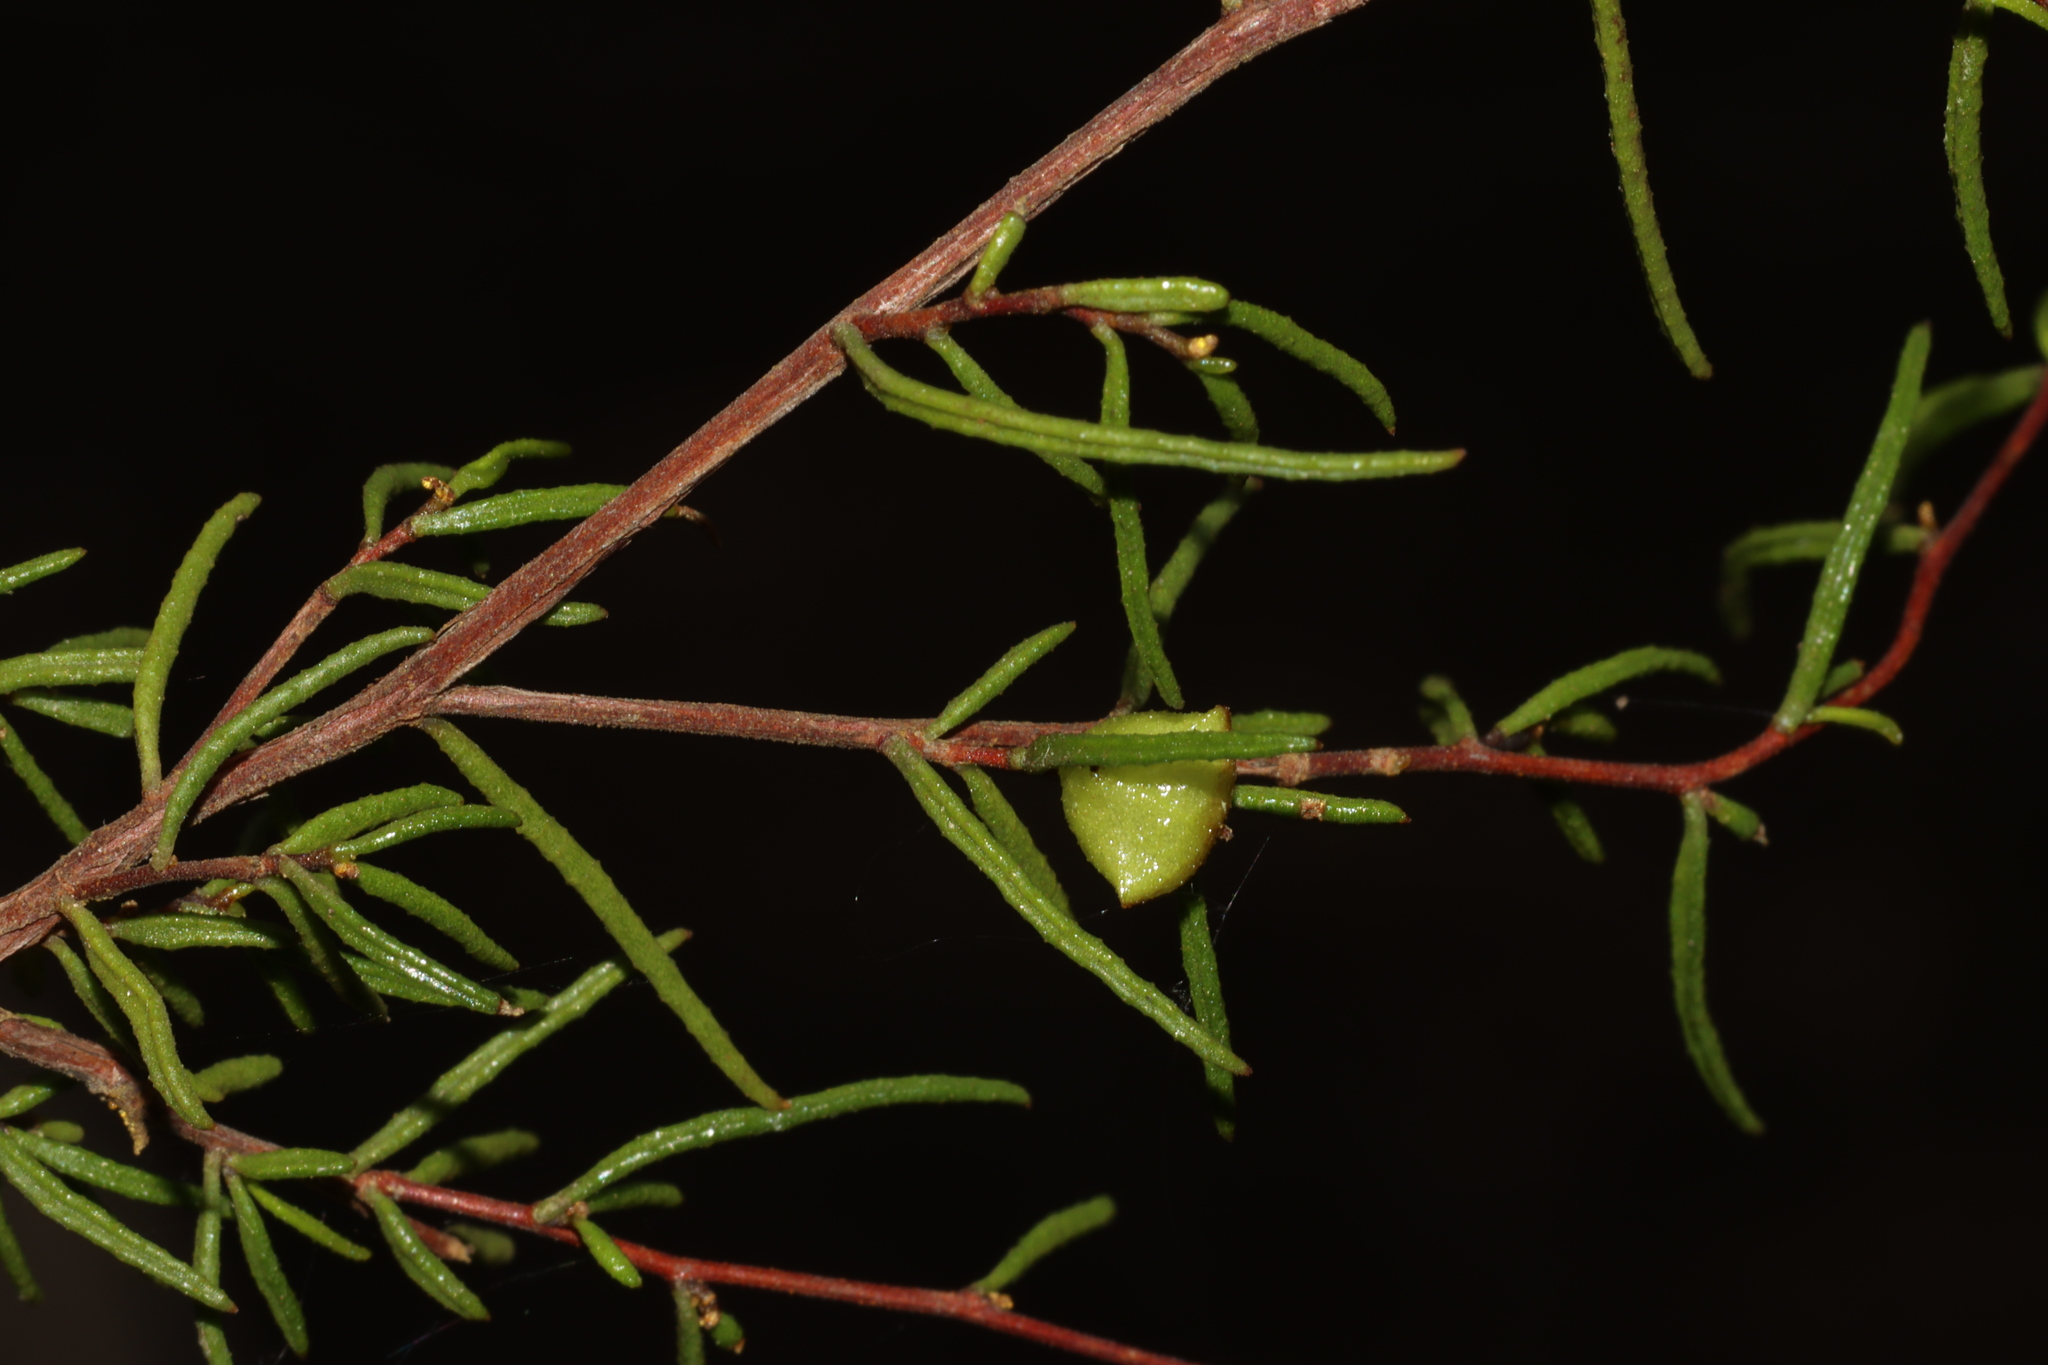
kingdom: Plantae
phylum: Tracheophyta
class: Magnoliopsida
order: Sapindales
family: Sapindaceae
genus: Dodonaea
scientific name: Dodonaea hexandra
